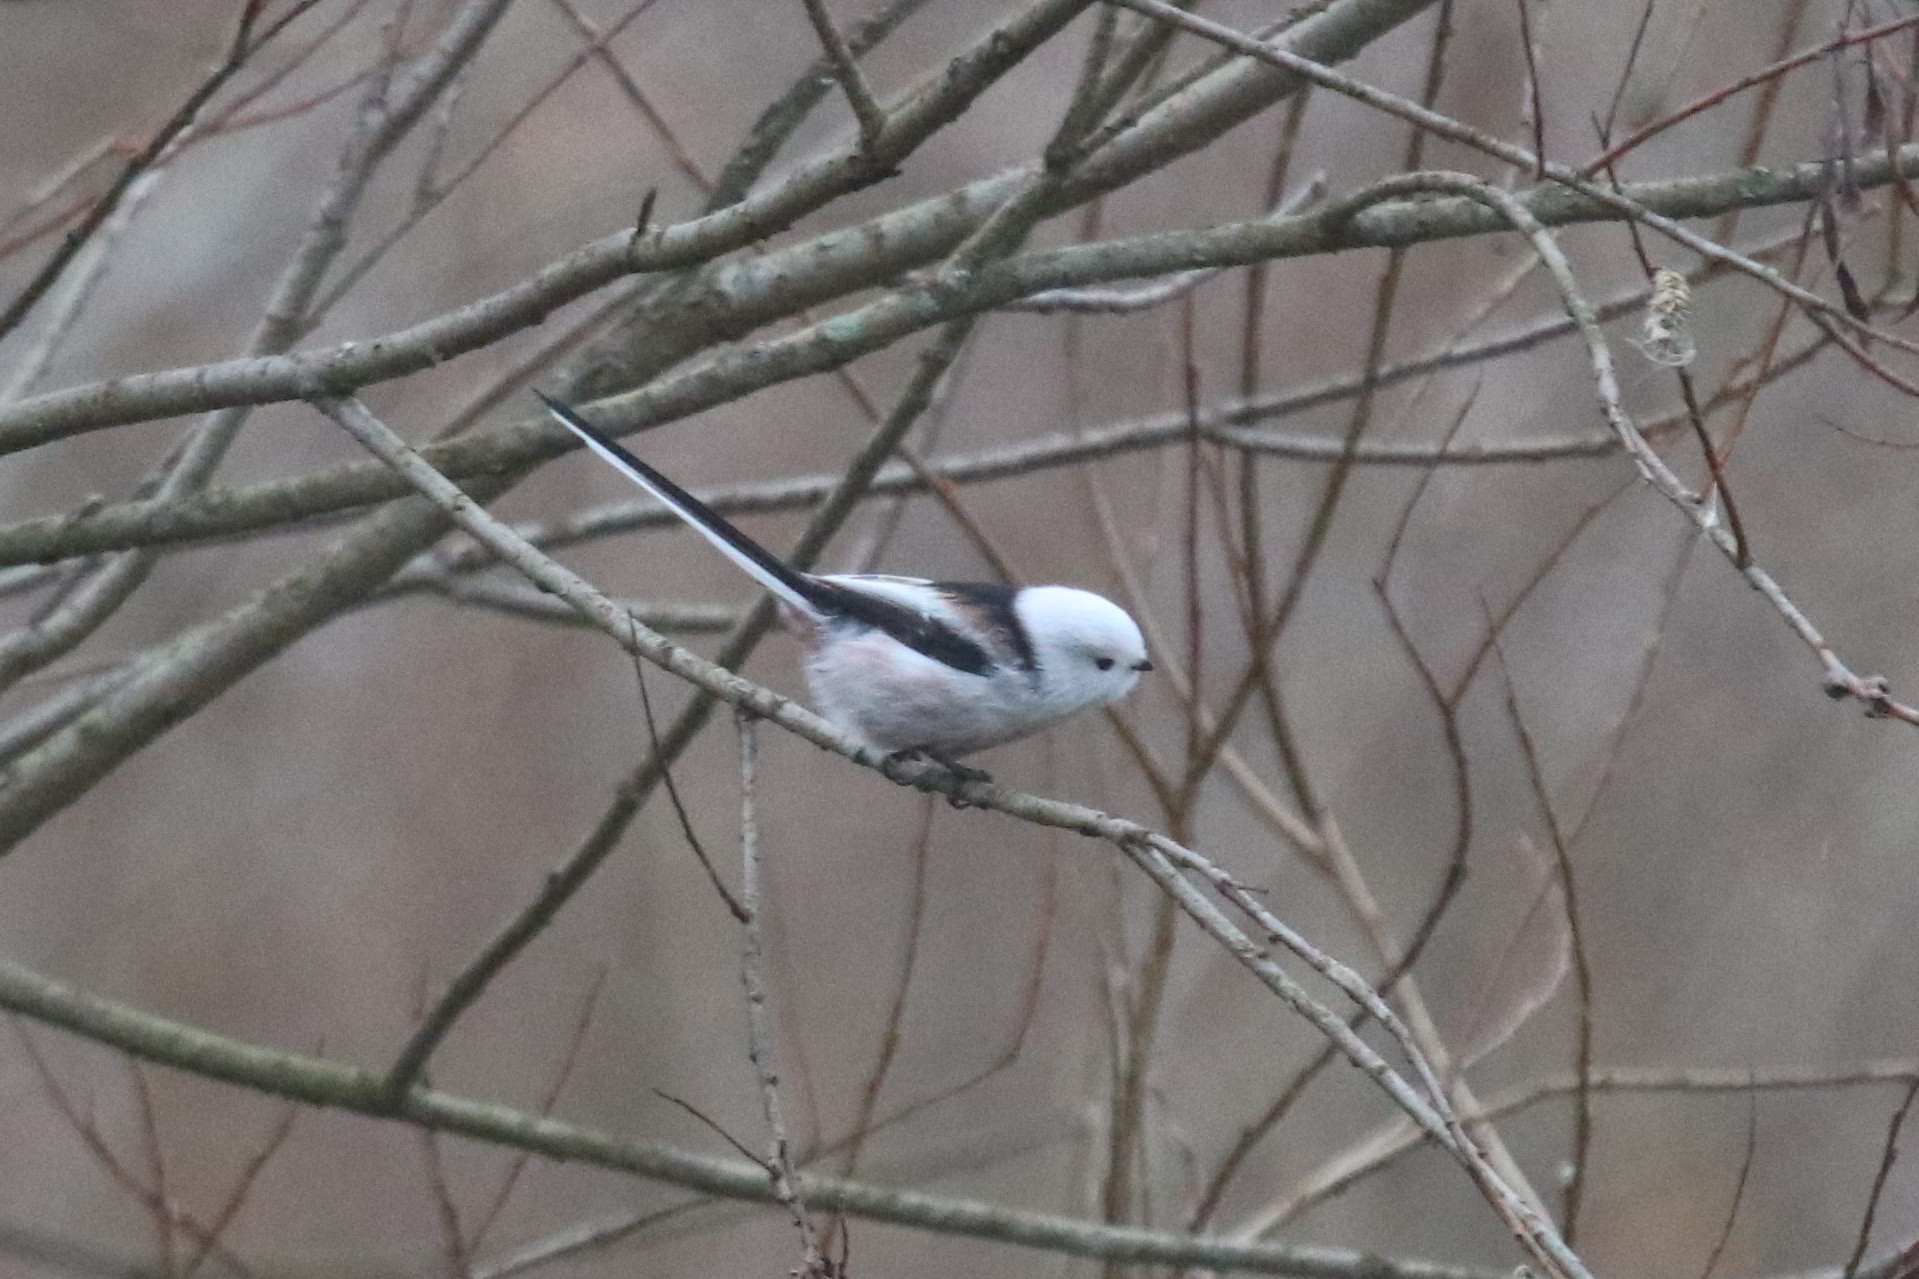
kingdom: Animalia
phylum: Chordata
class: Aves
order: Passeriformes
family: Aegithalidae
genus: Aegithalos
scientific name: Aegithalos caudatus
